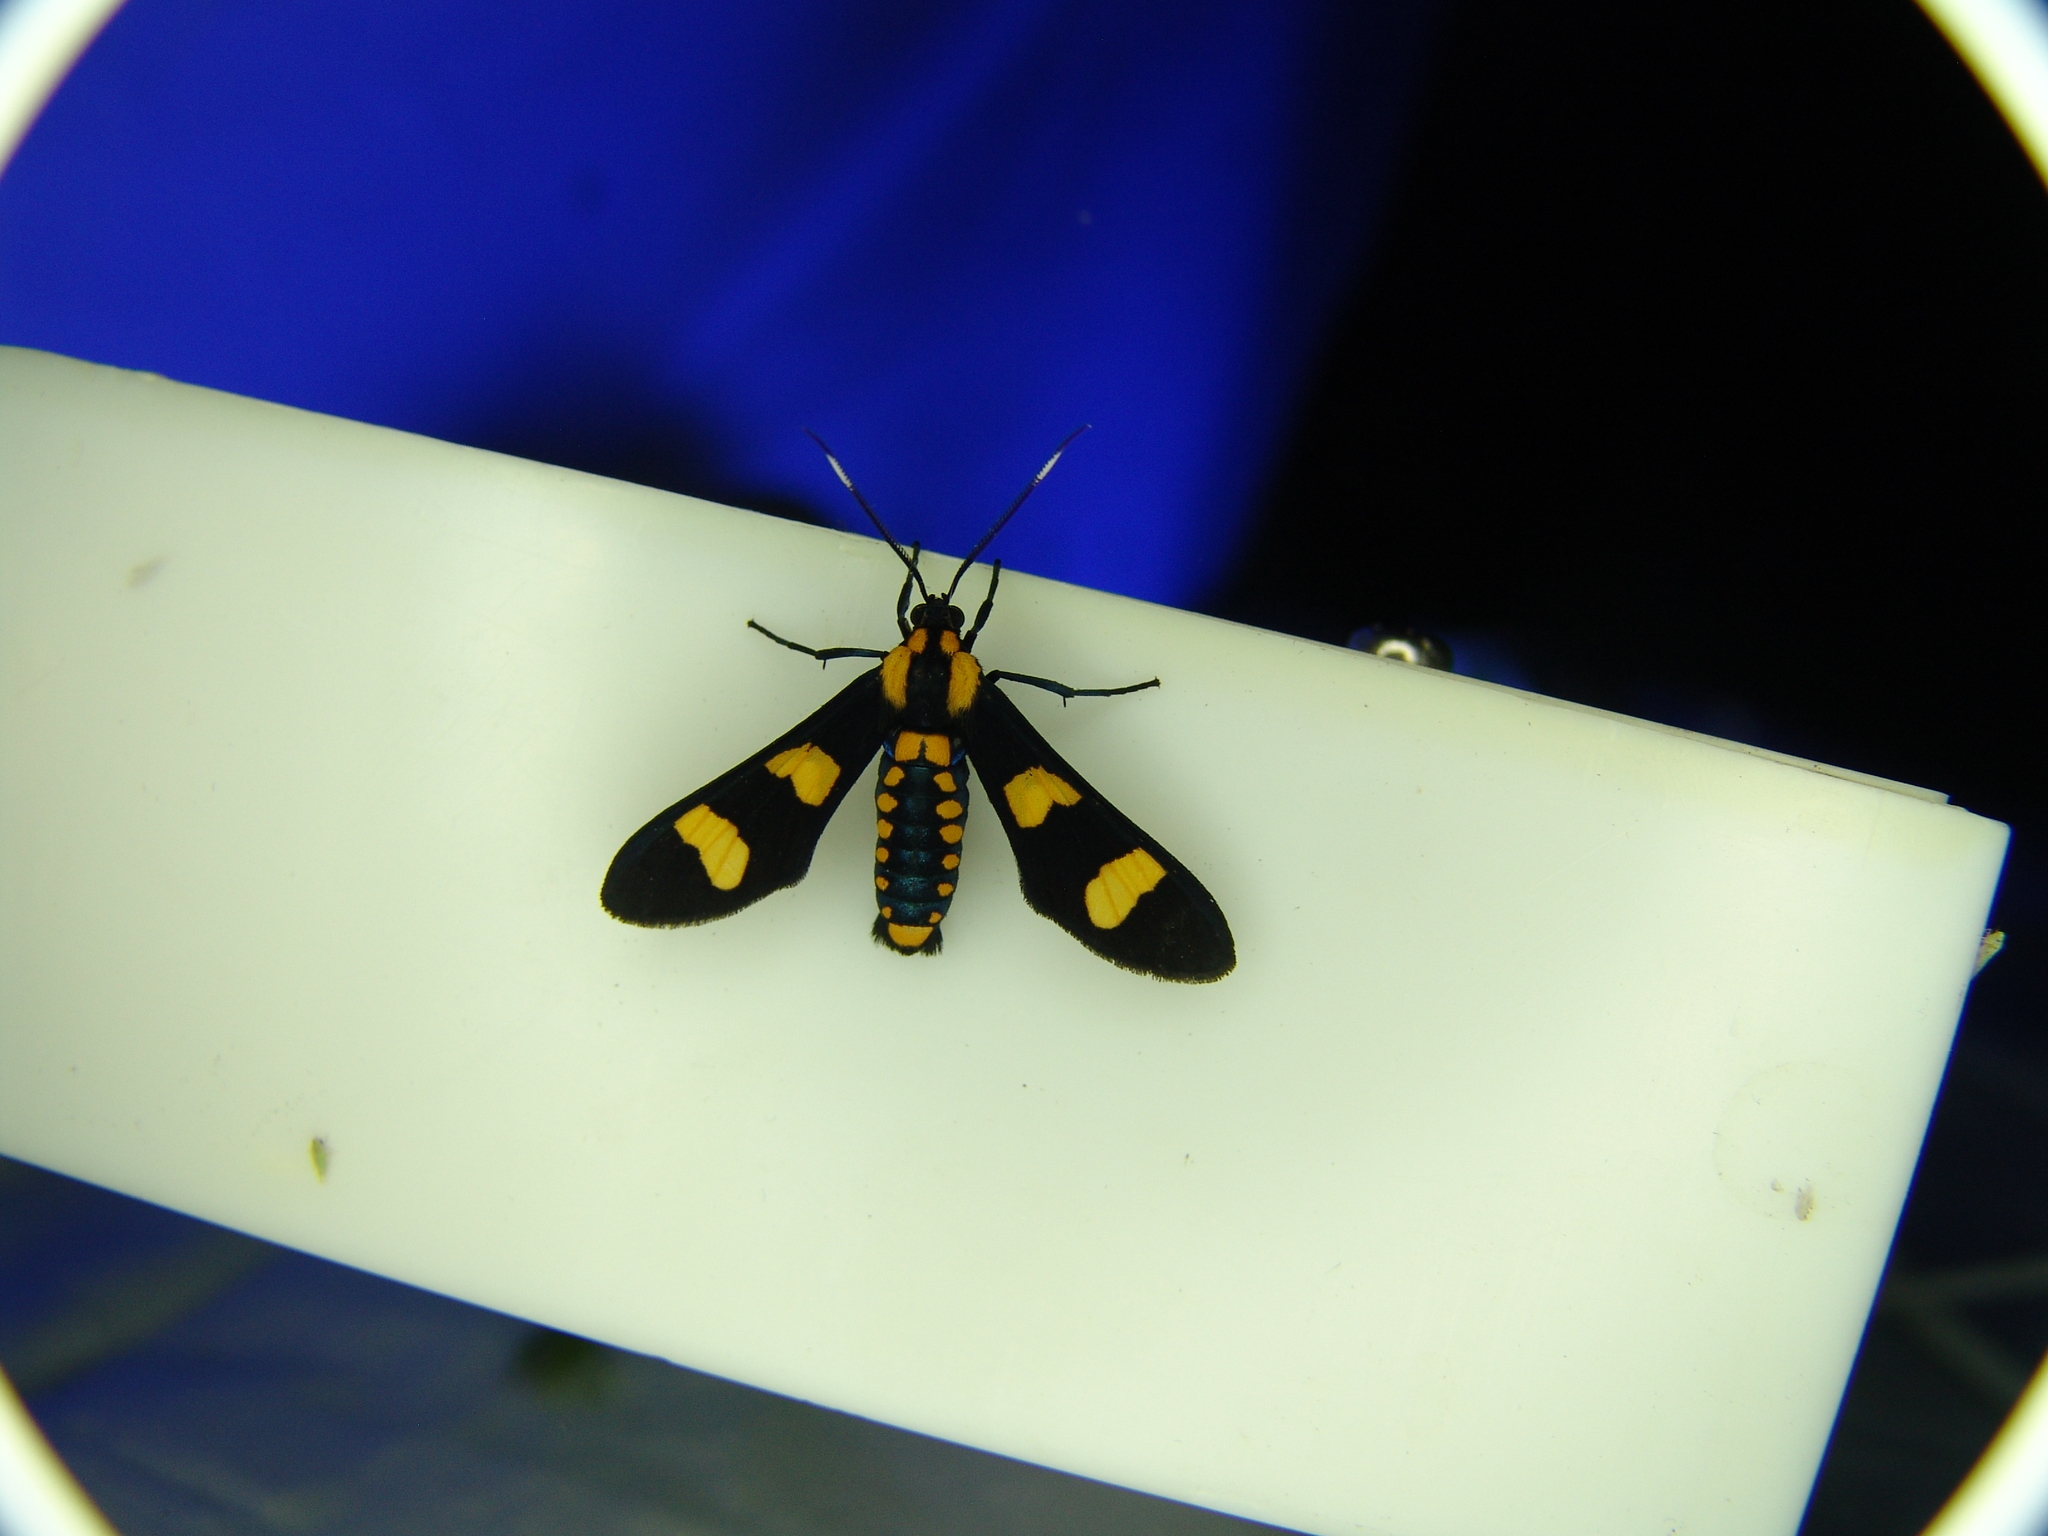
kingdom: Animalia
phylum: Arthropoda
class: Insecta
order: Lepidoptera
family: Erebidae
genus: Phoenicoprocta
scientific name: Phoenicoprocta hampsonii
